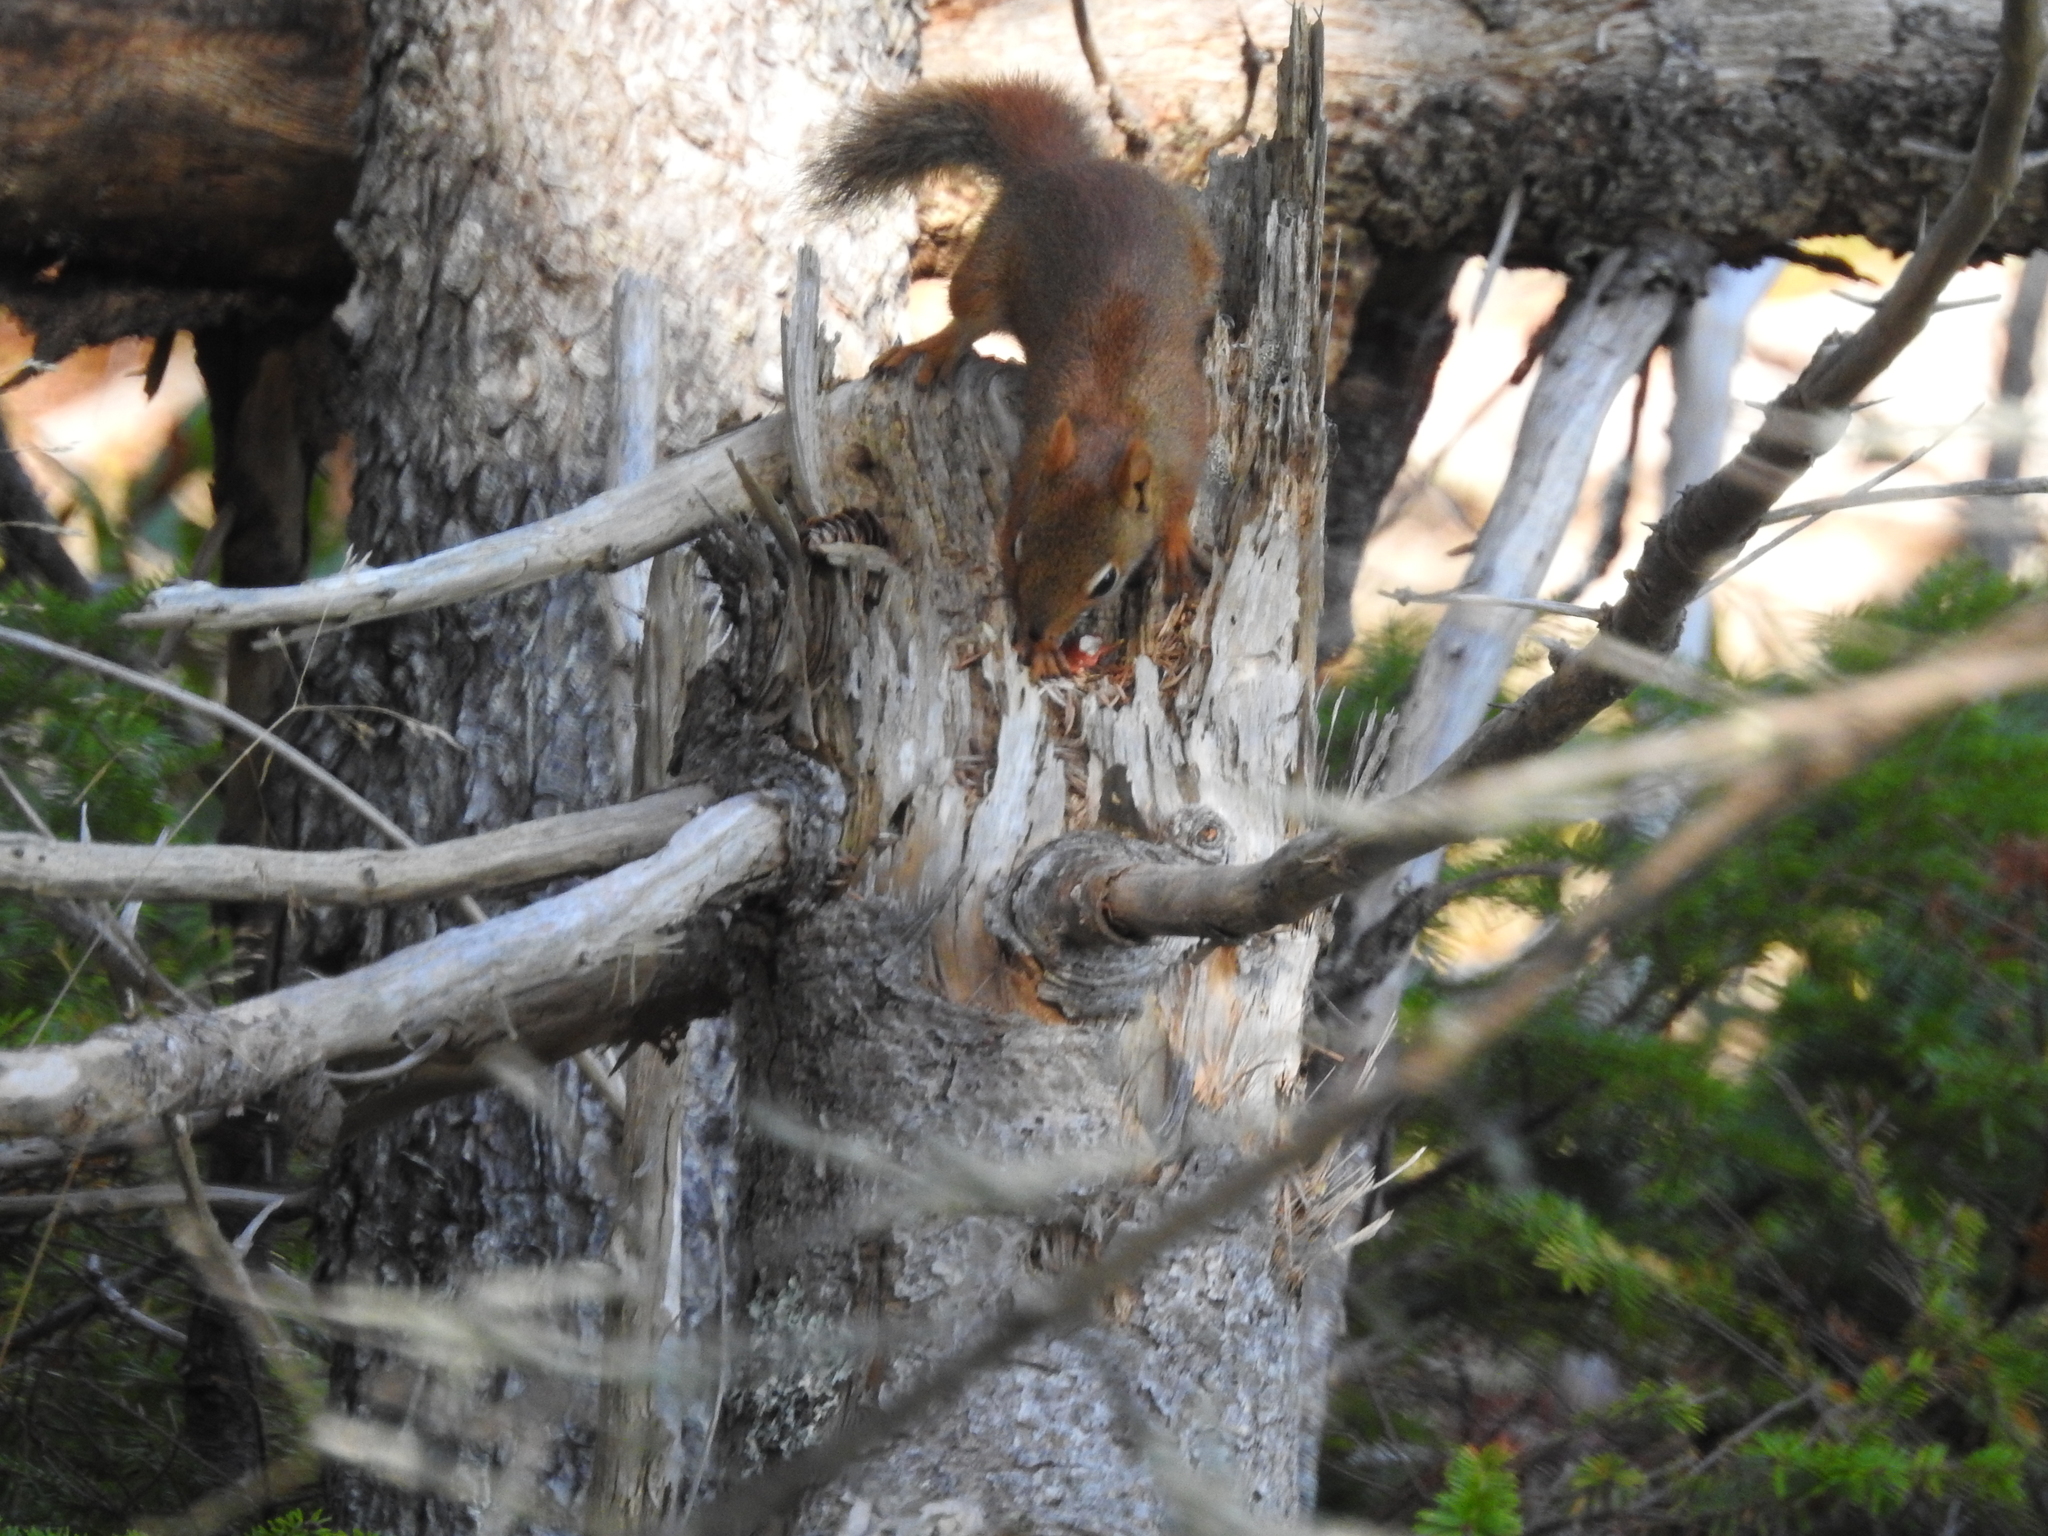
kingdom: Animalia
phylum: Chordata
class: Mammalia
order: Rodentia
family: Sciuridae
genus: Tamiasciurus
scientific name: Tamiasciurus hudsonicus
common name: Red squirrel
